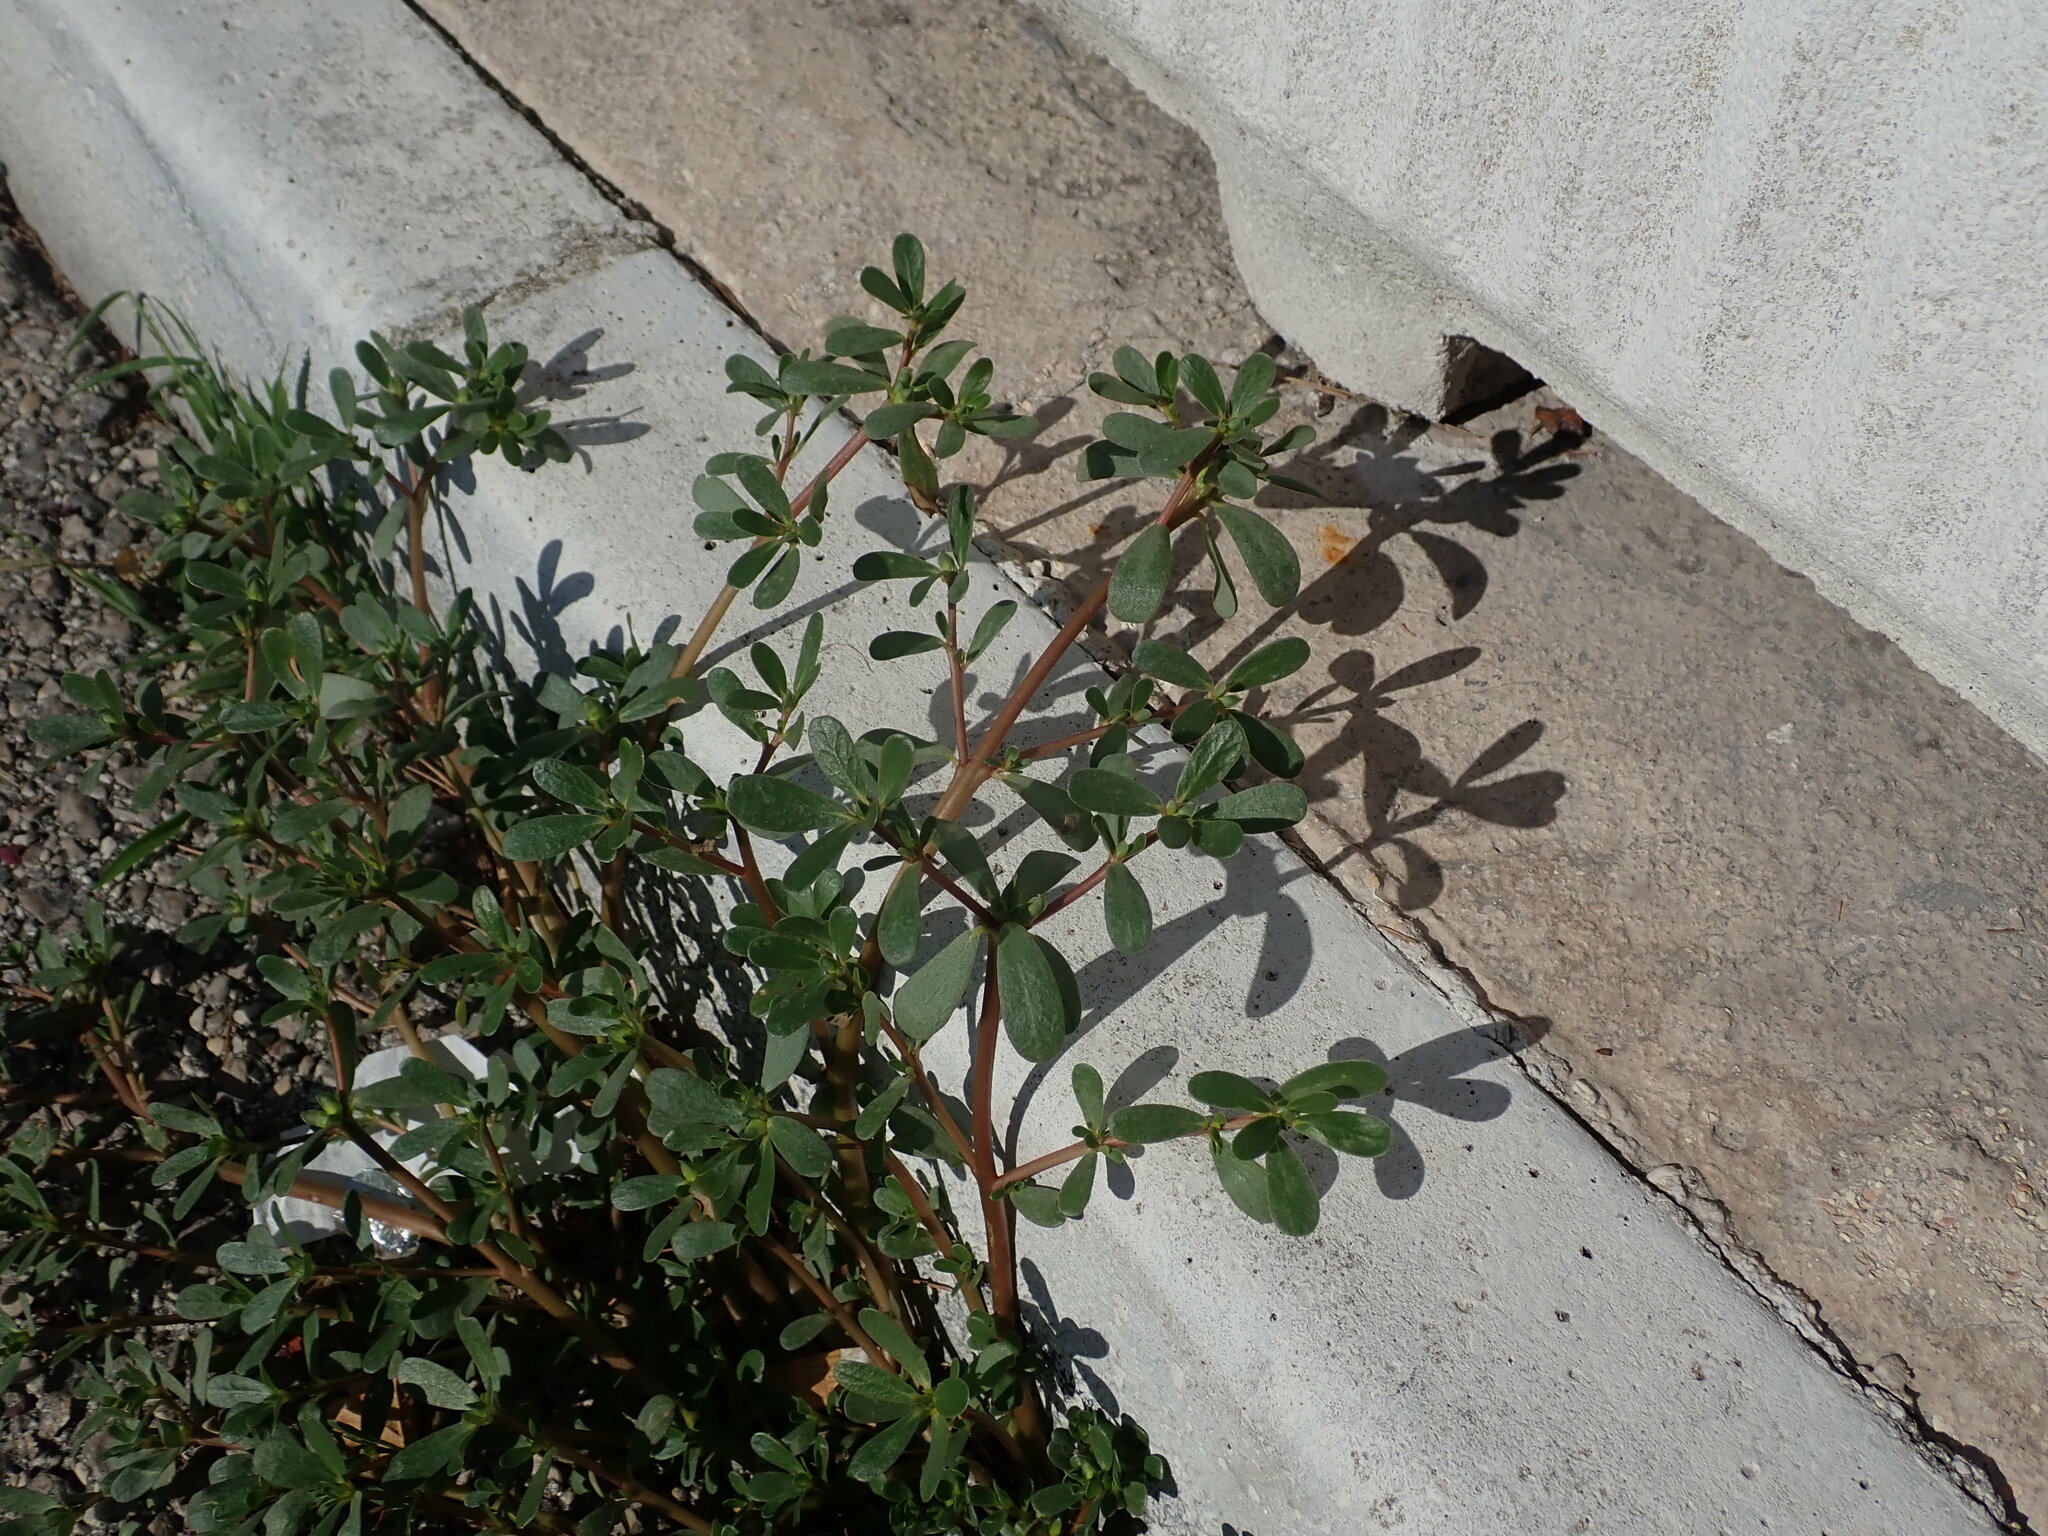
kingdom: Plantae
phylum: Tracheophyta
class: Magnoliopsida
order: Caryophyllales
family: Portulacaceae
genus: Portulaca
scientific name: Portulaca oleracea
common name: Common purslane
